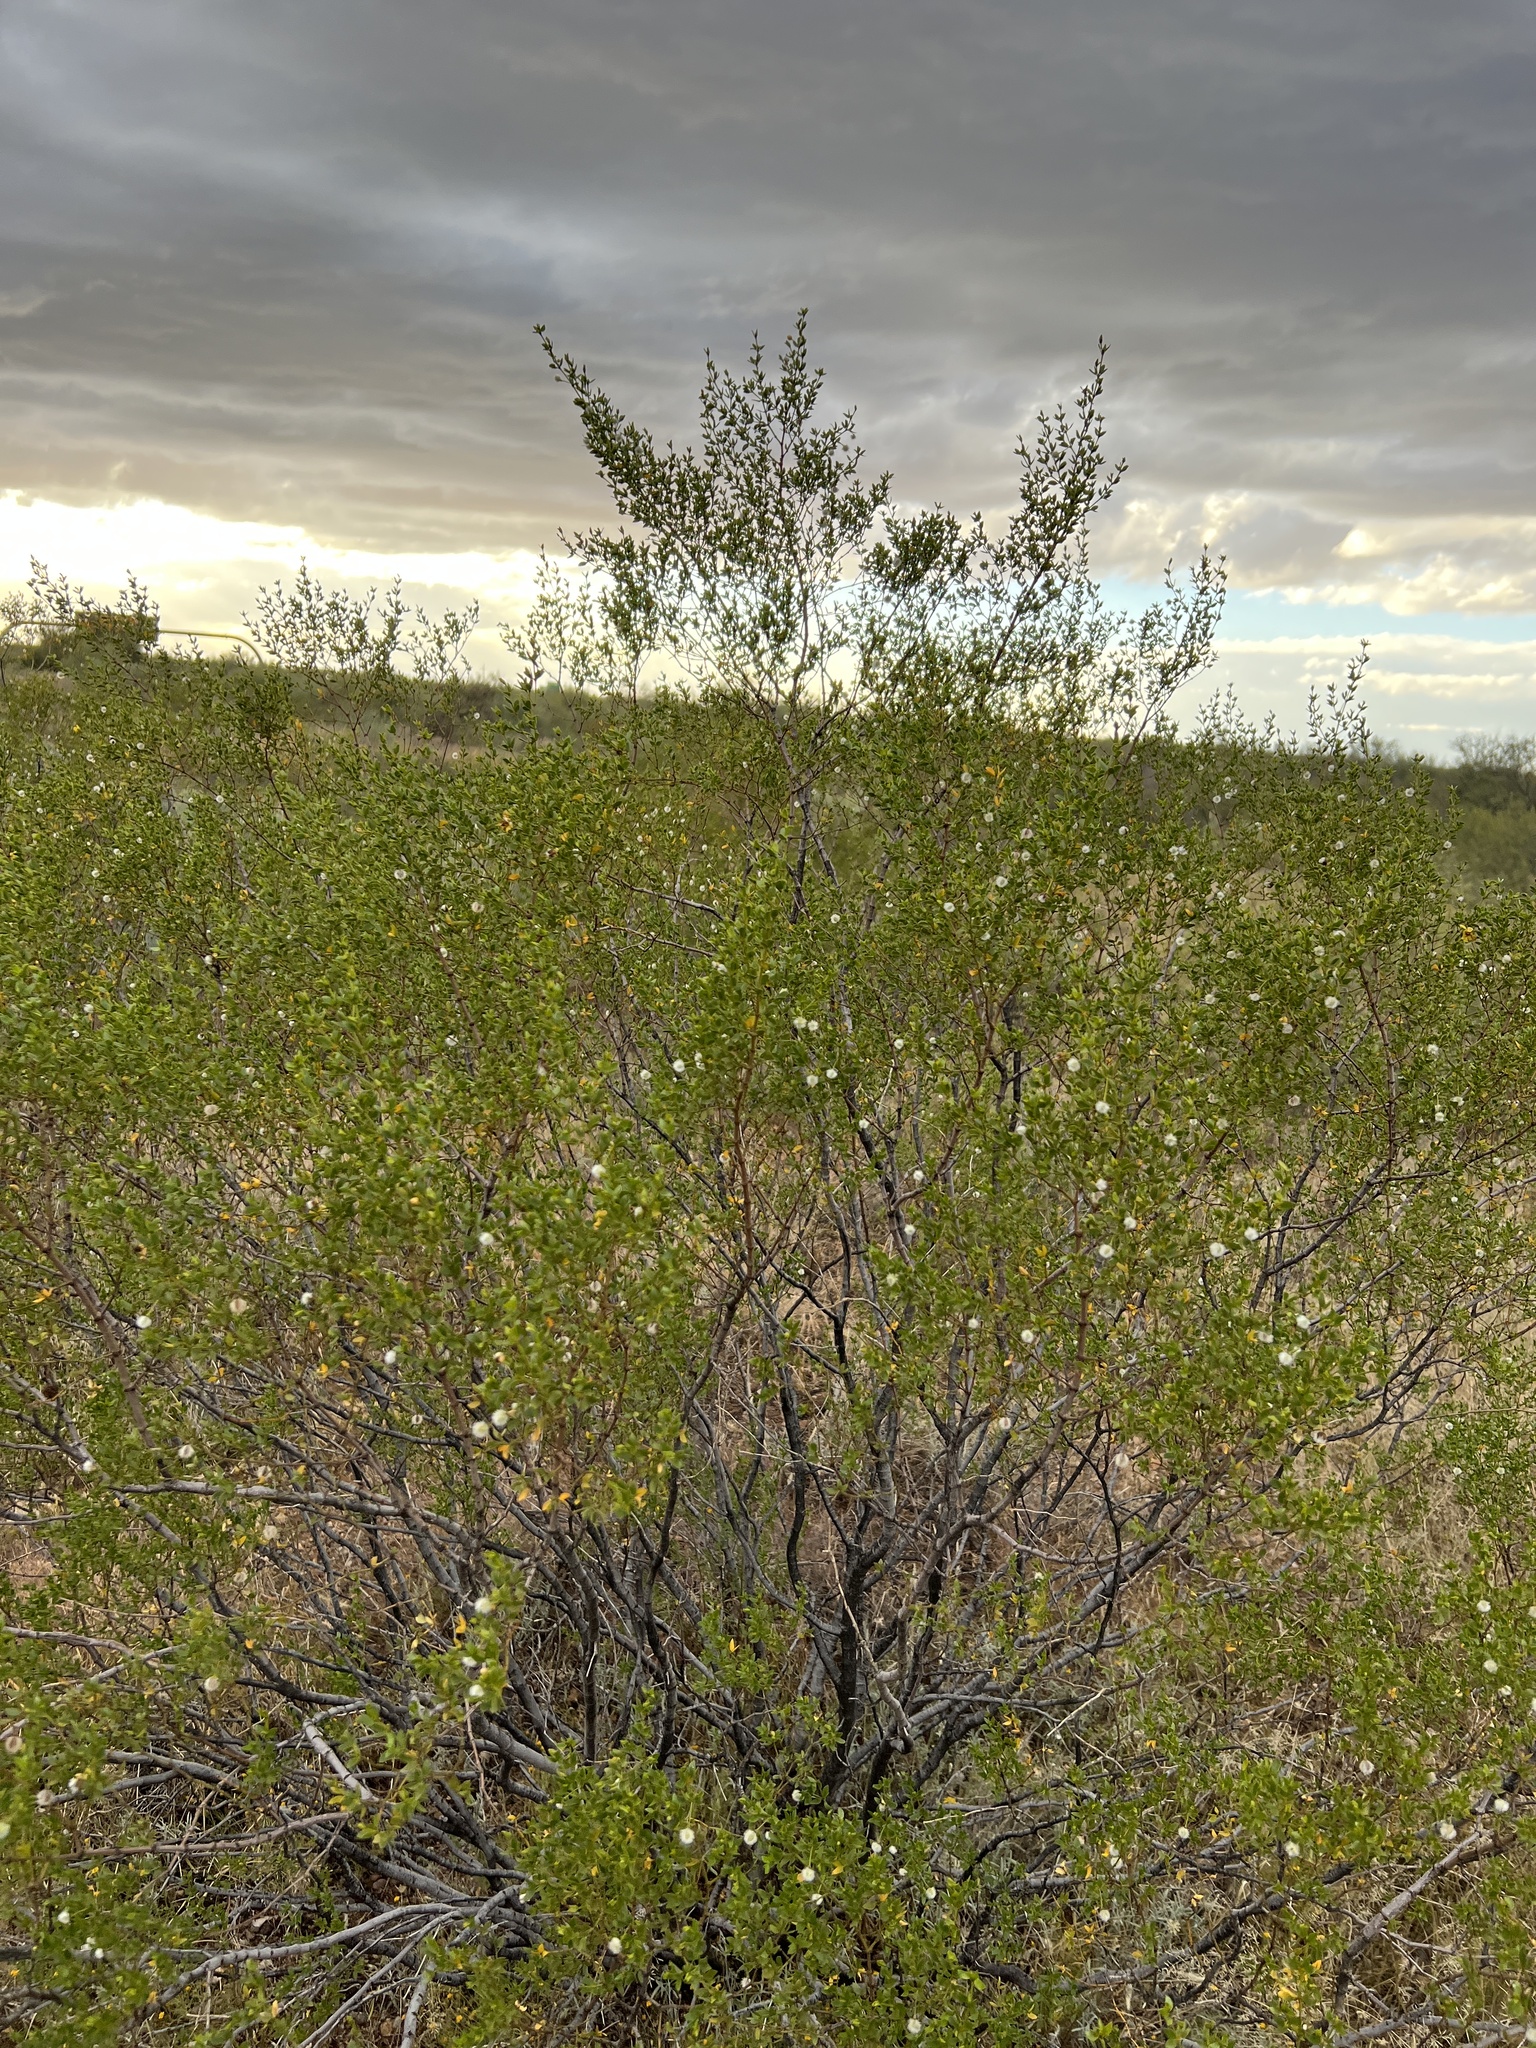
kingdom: Plantae
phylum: Tracheophyta
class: Magnoliopsida
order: Zygophyllales
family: Zygophyllaceae
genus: Larrea
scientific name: Larrea tridentata
